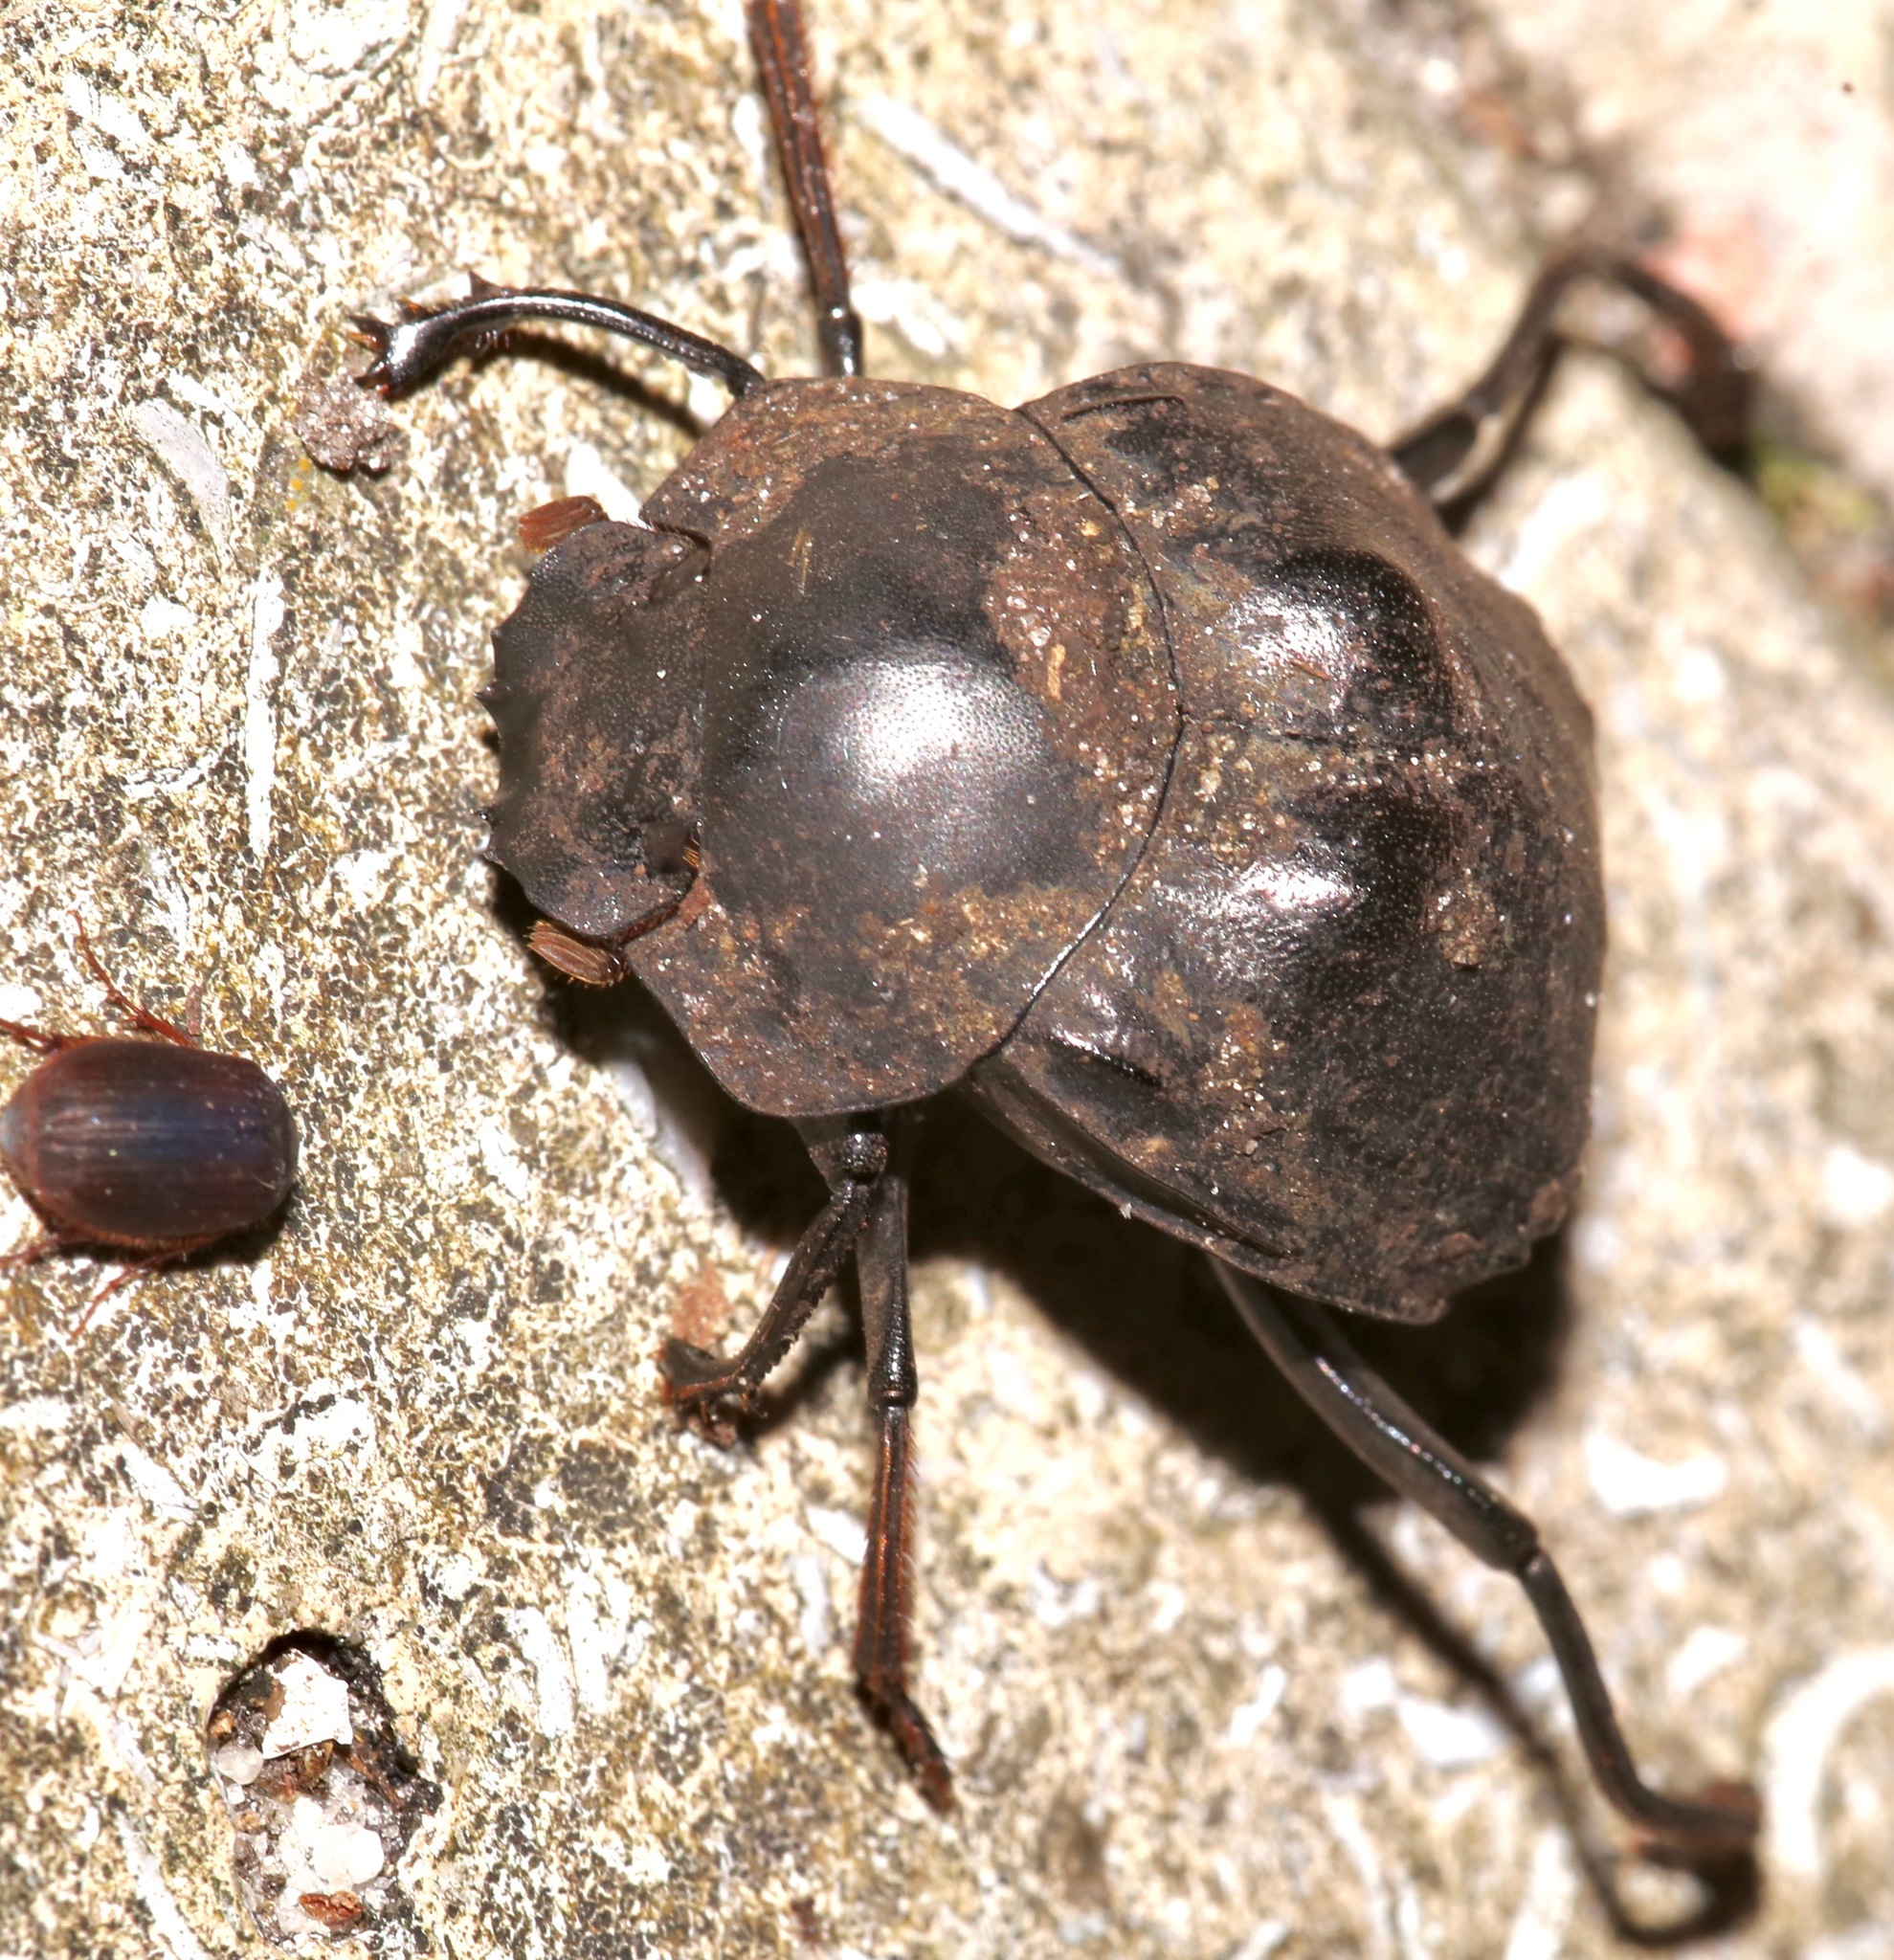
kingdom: Animalia
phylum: Arthropoda
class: Insecta
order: Coleoptera
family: Scarabaeidae
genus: Deltochilum
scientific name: Deltochilum gibbosum
